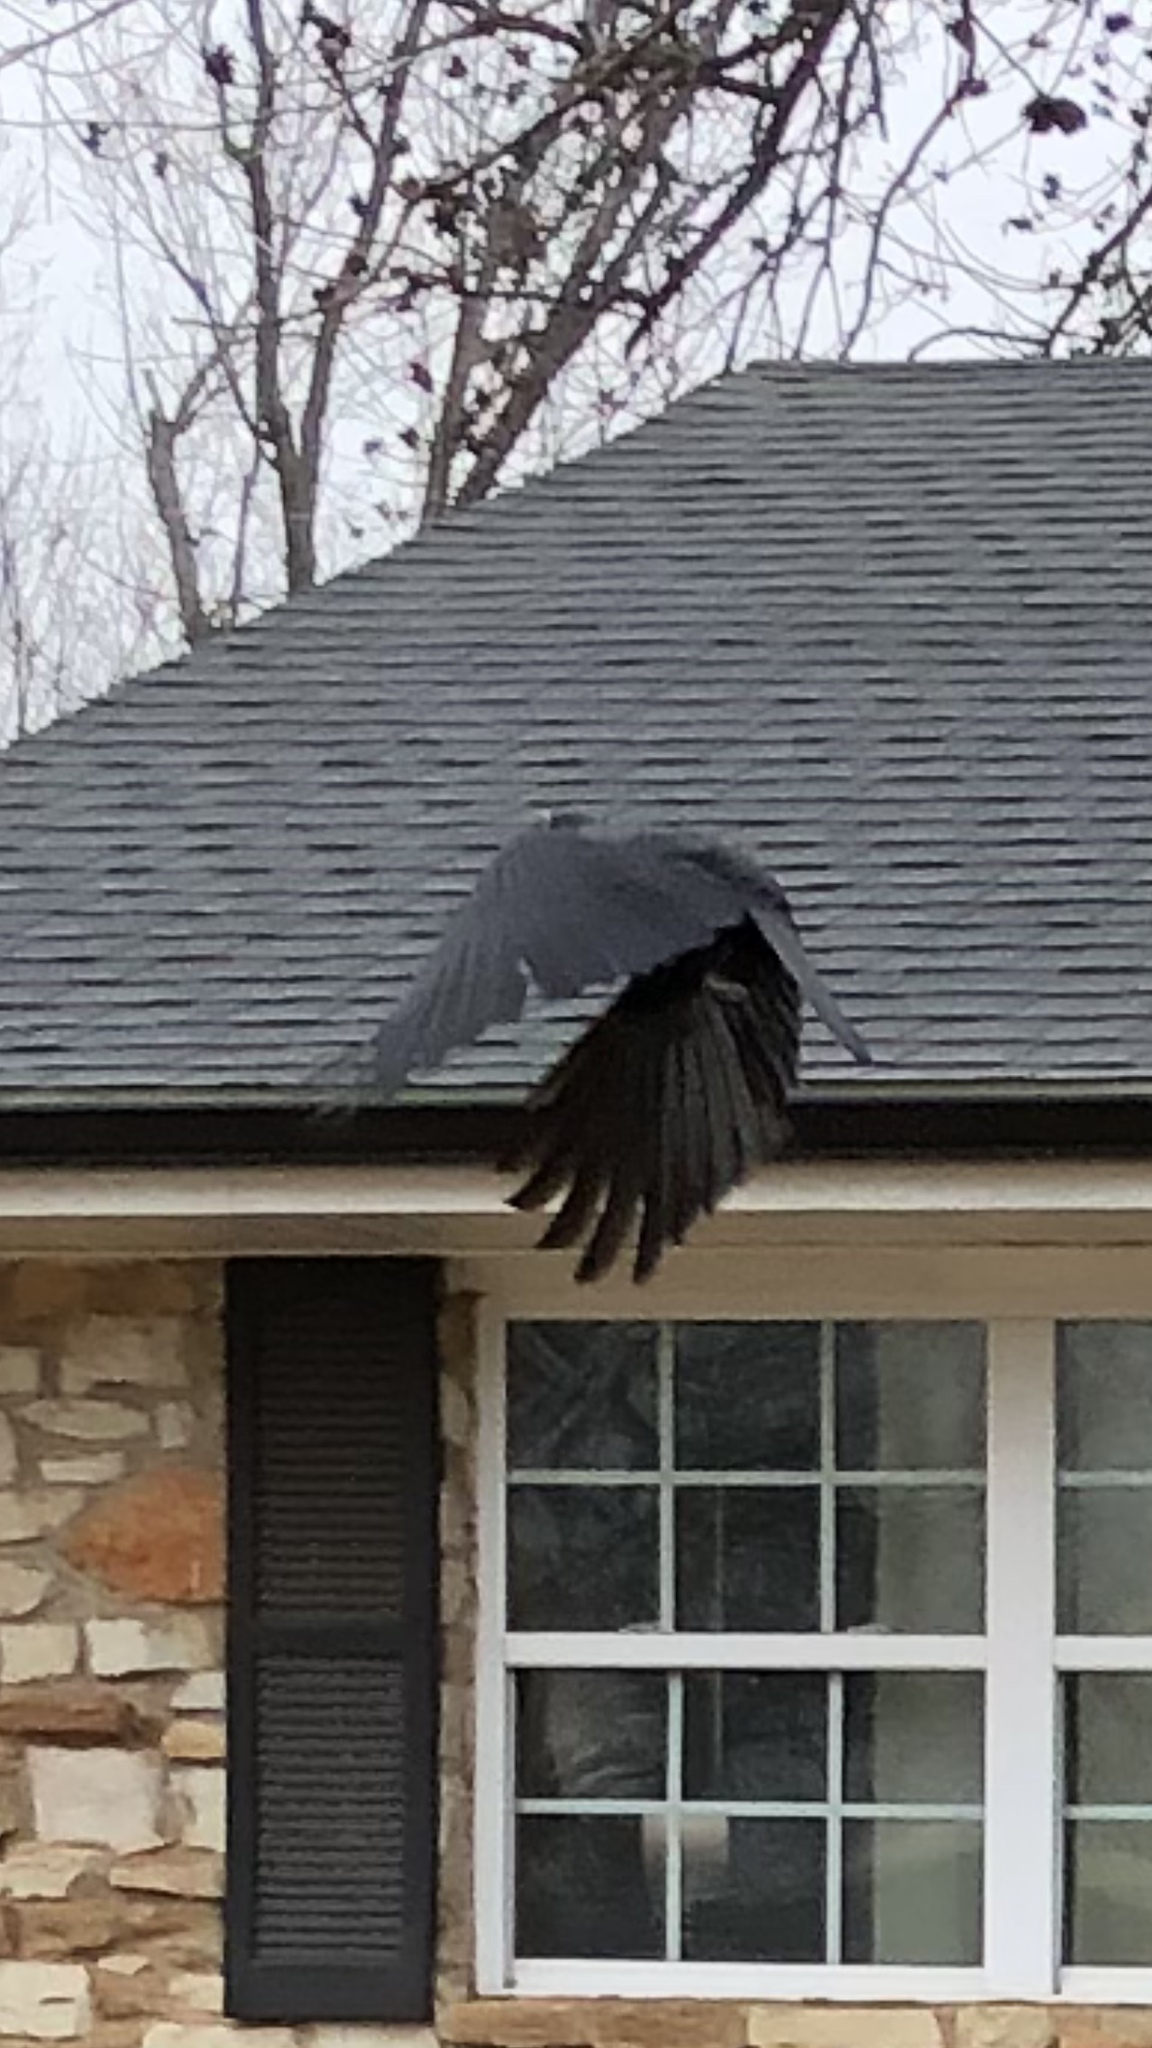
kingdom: Animalia
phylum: Chordata
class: Aves
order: Passeriformes
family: Corvidae
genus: Corvus
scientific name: Corvus brachyrhynchos
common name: American crow
